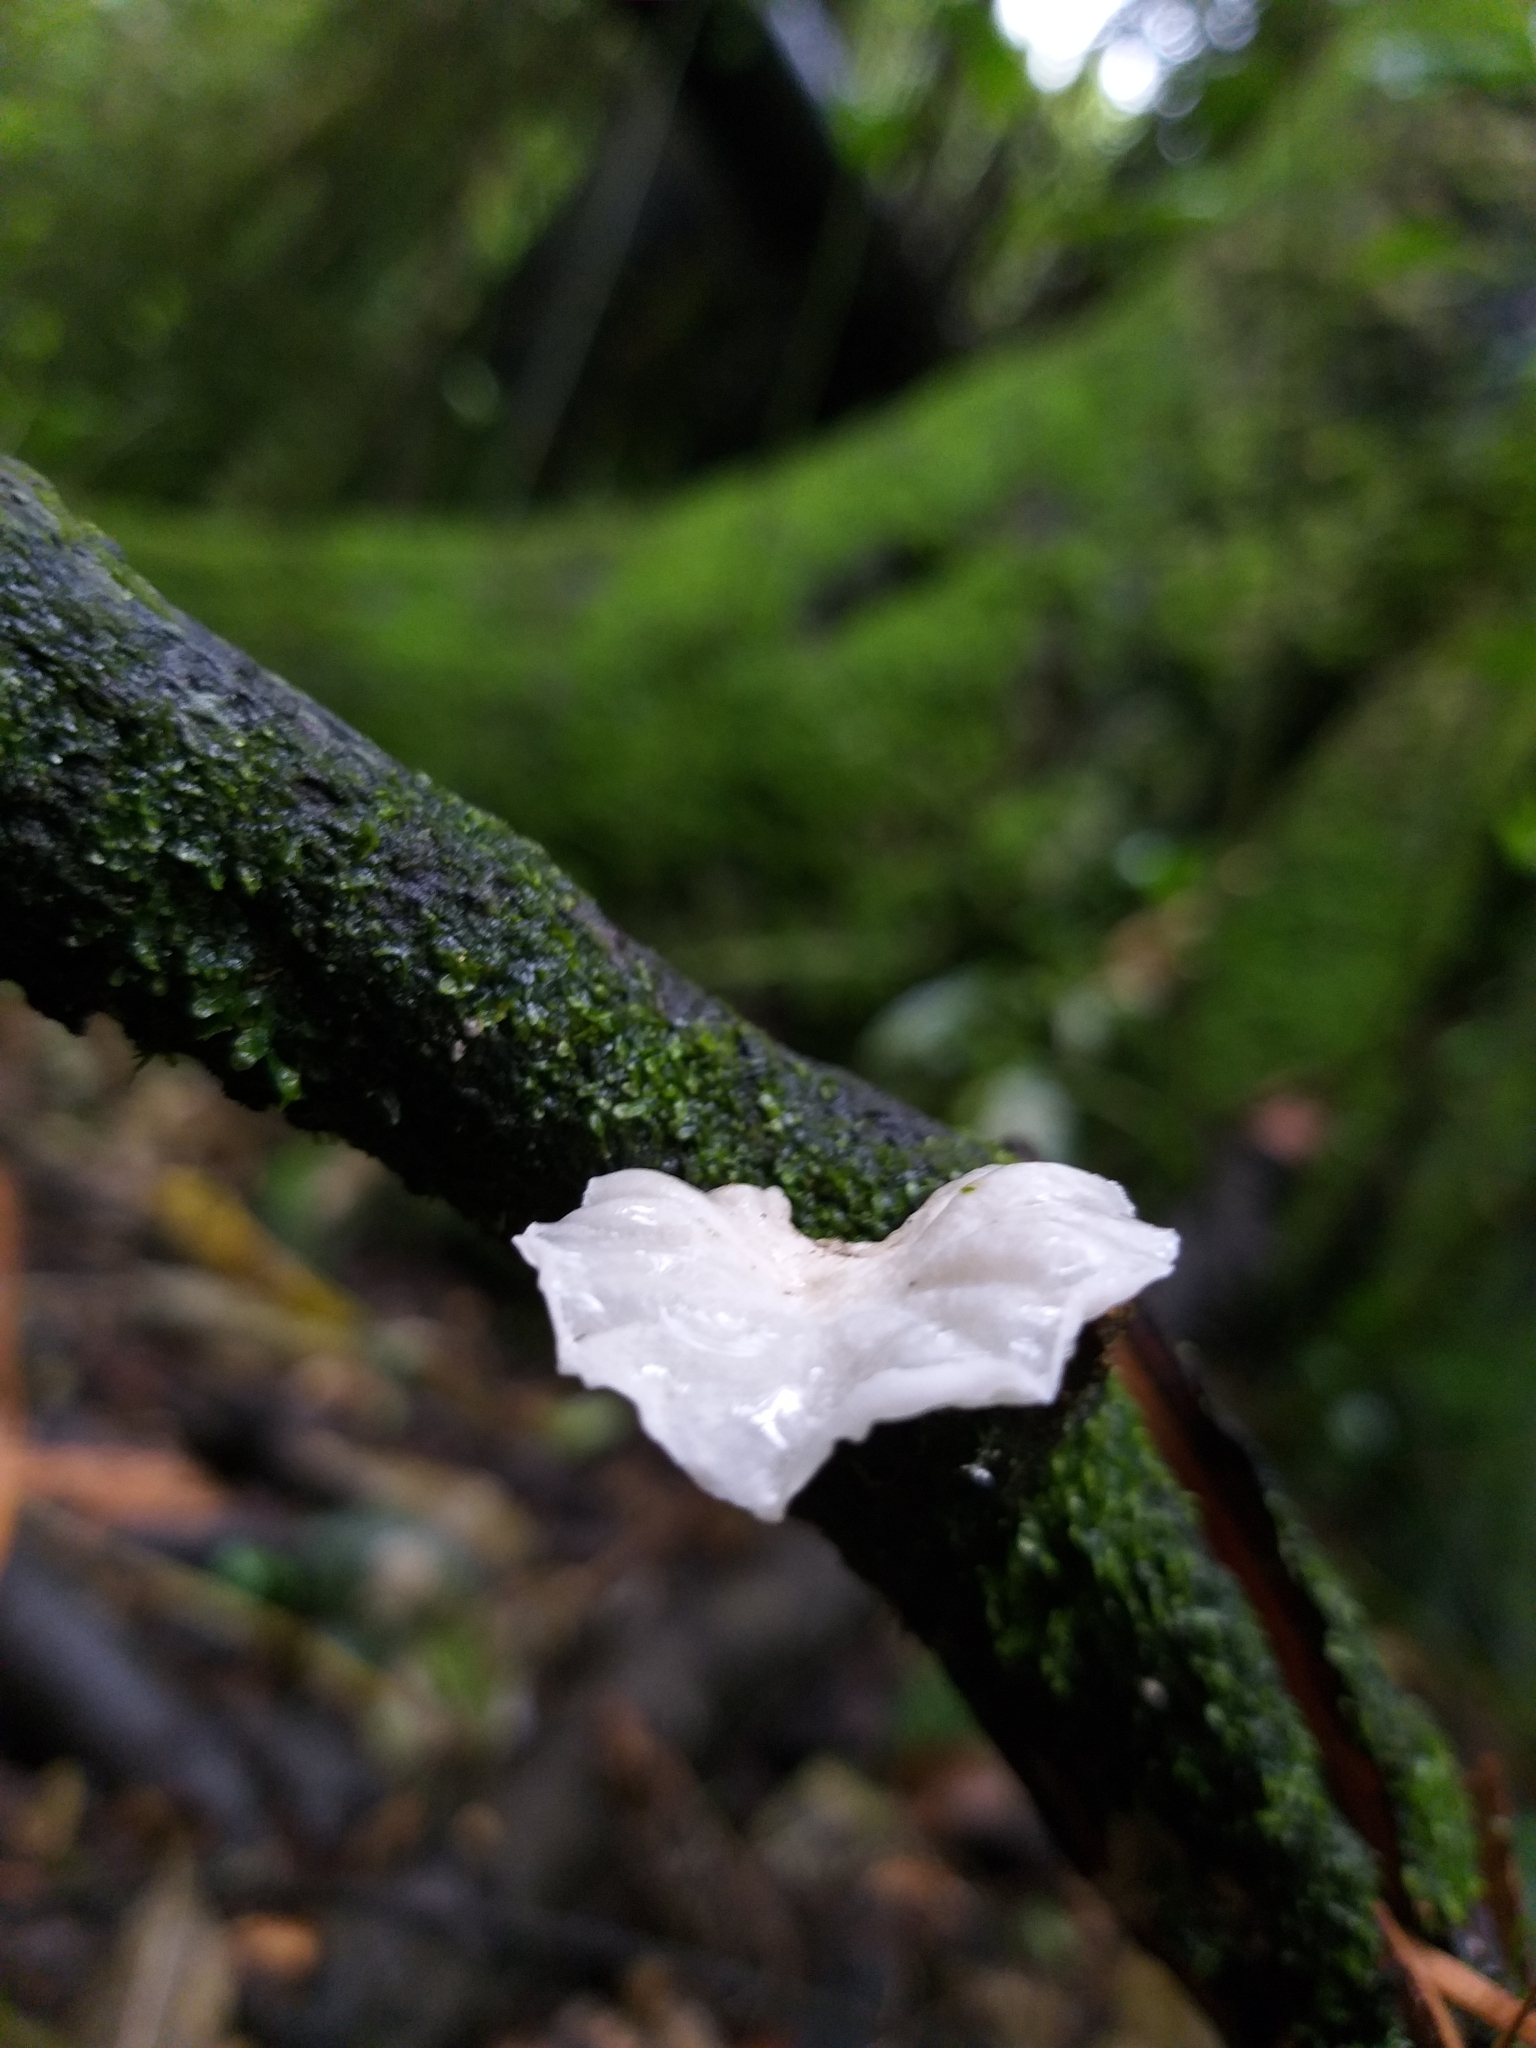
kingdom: Fungi
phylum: Basidiomycota
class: Agaricomycetes
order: Agaricales
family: Omphalotaceae
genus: Marasmiellus
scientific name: Marasmiellus candidus
